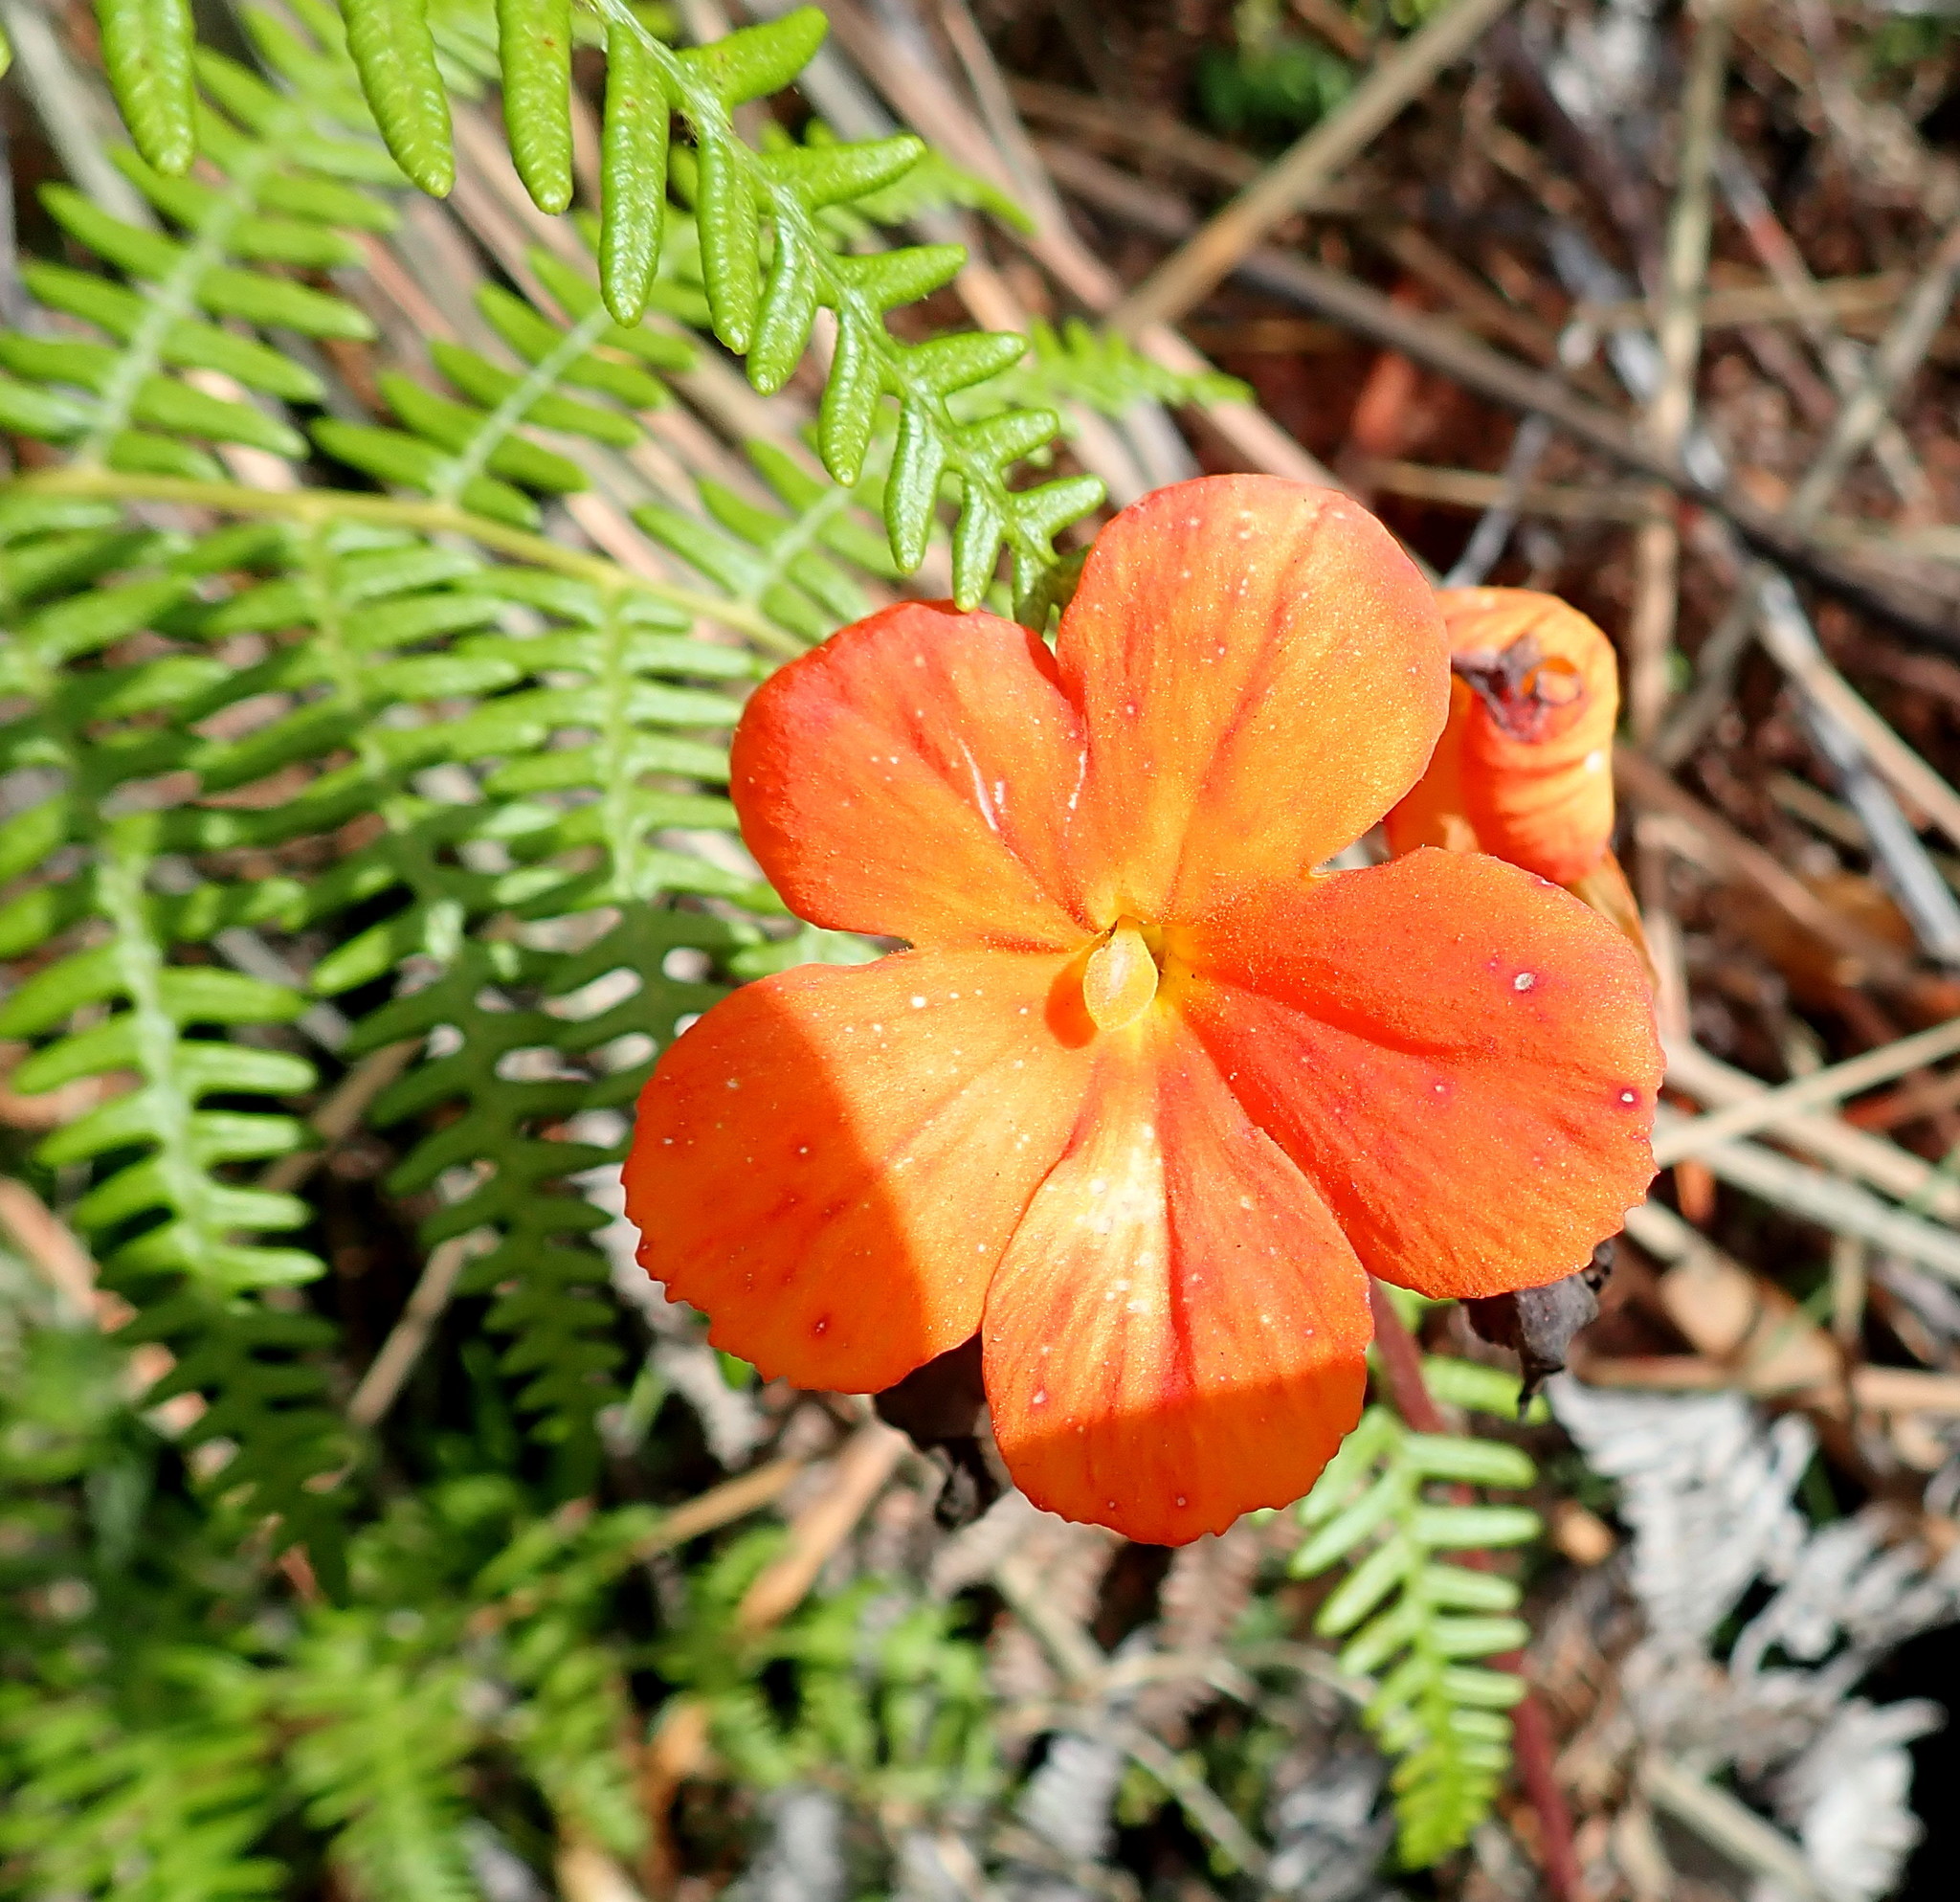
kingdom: Plantae
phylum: Tracheophyta
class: Magnoliopsida
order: Lamiales
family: Orobanchaceae
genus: Harveya
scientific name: Harveya stenosiphon
